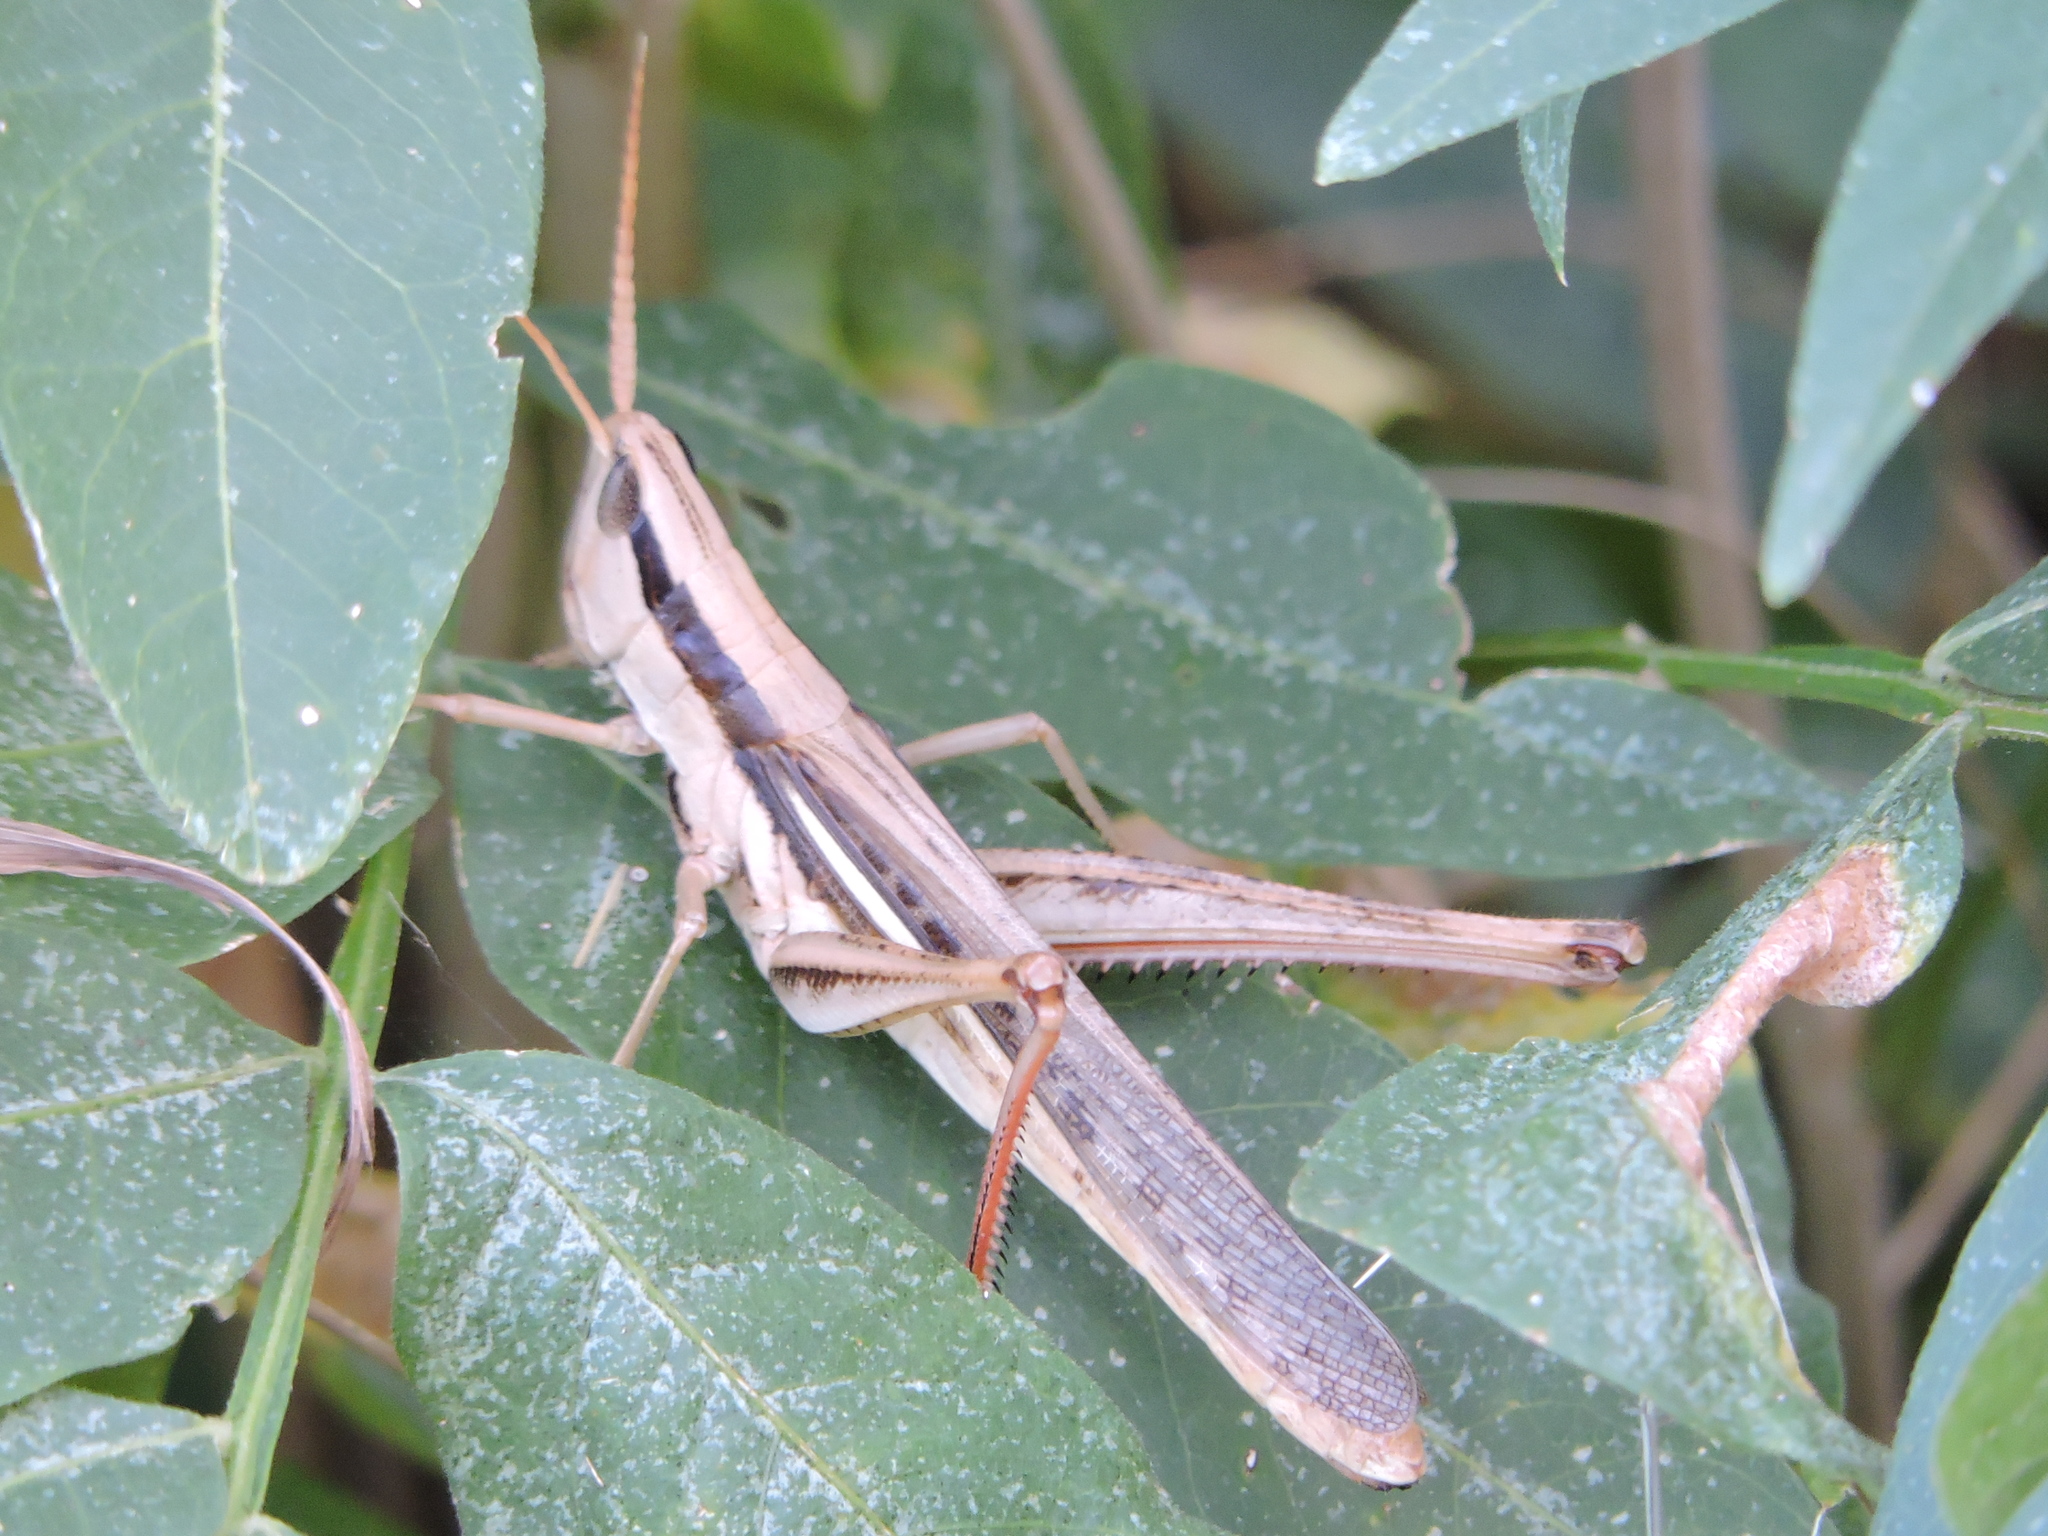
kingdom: Animalia
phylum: Arthropoda
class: Insecta
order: Orthoptera
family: Acrididae
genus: Mermiria
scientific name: Mermiria bivittata
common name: Two-striped mermiria grasshopper
